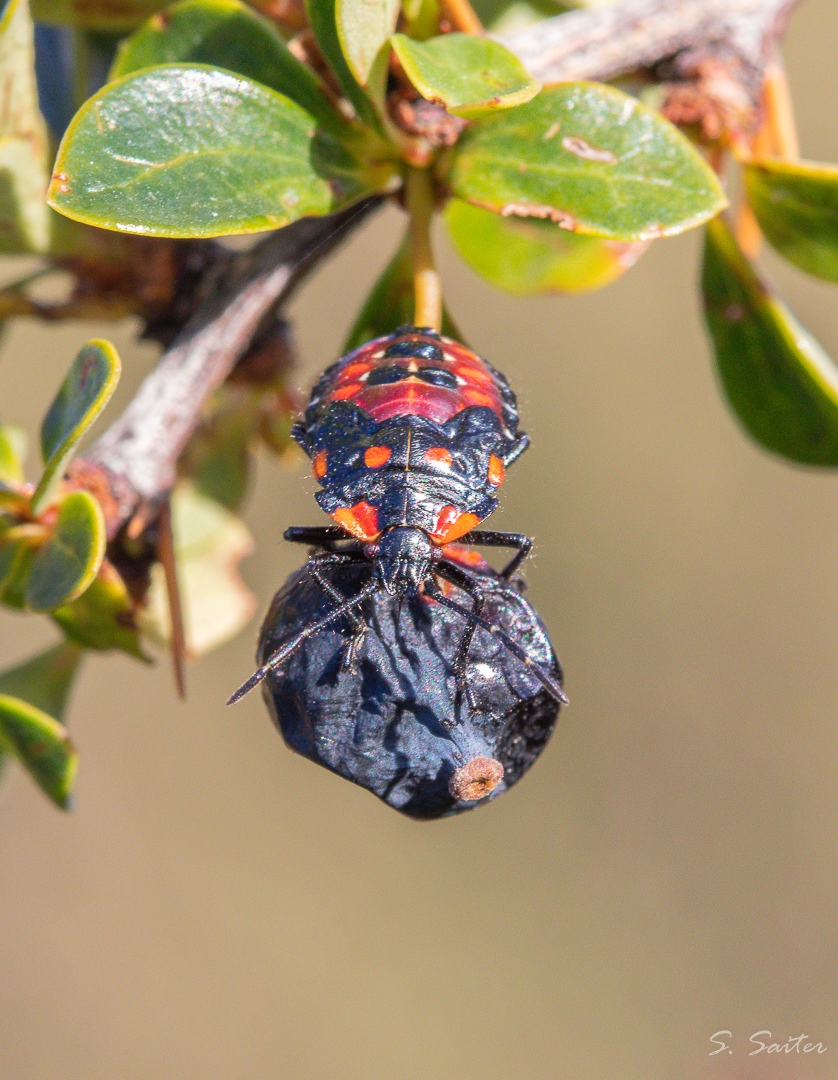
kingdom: Animalia
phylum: Arthropoda
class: Insecta
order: Hemiptera
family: Acanthosomatidae
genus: Phorbanta
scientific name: Phorbanta variabilis
